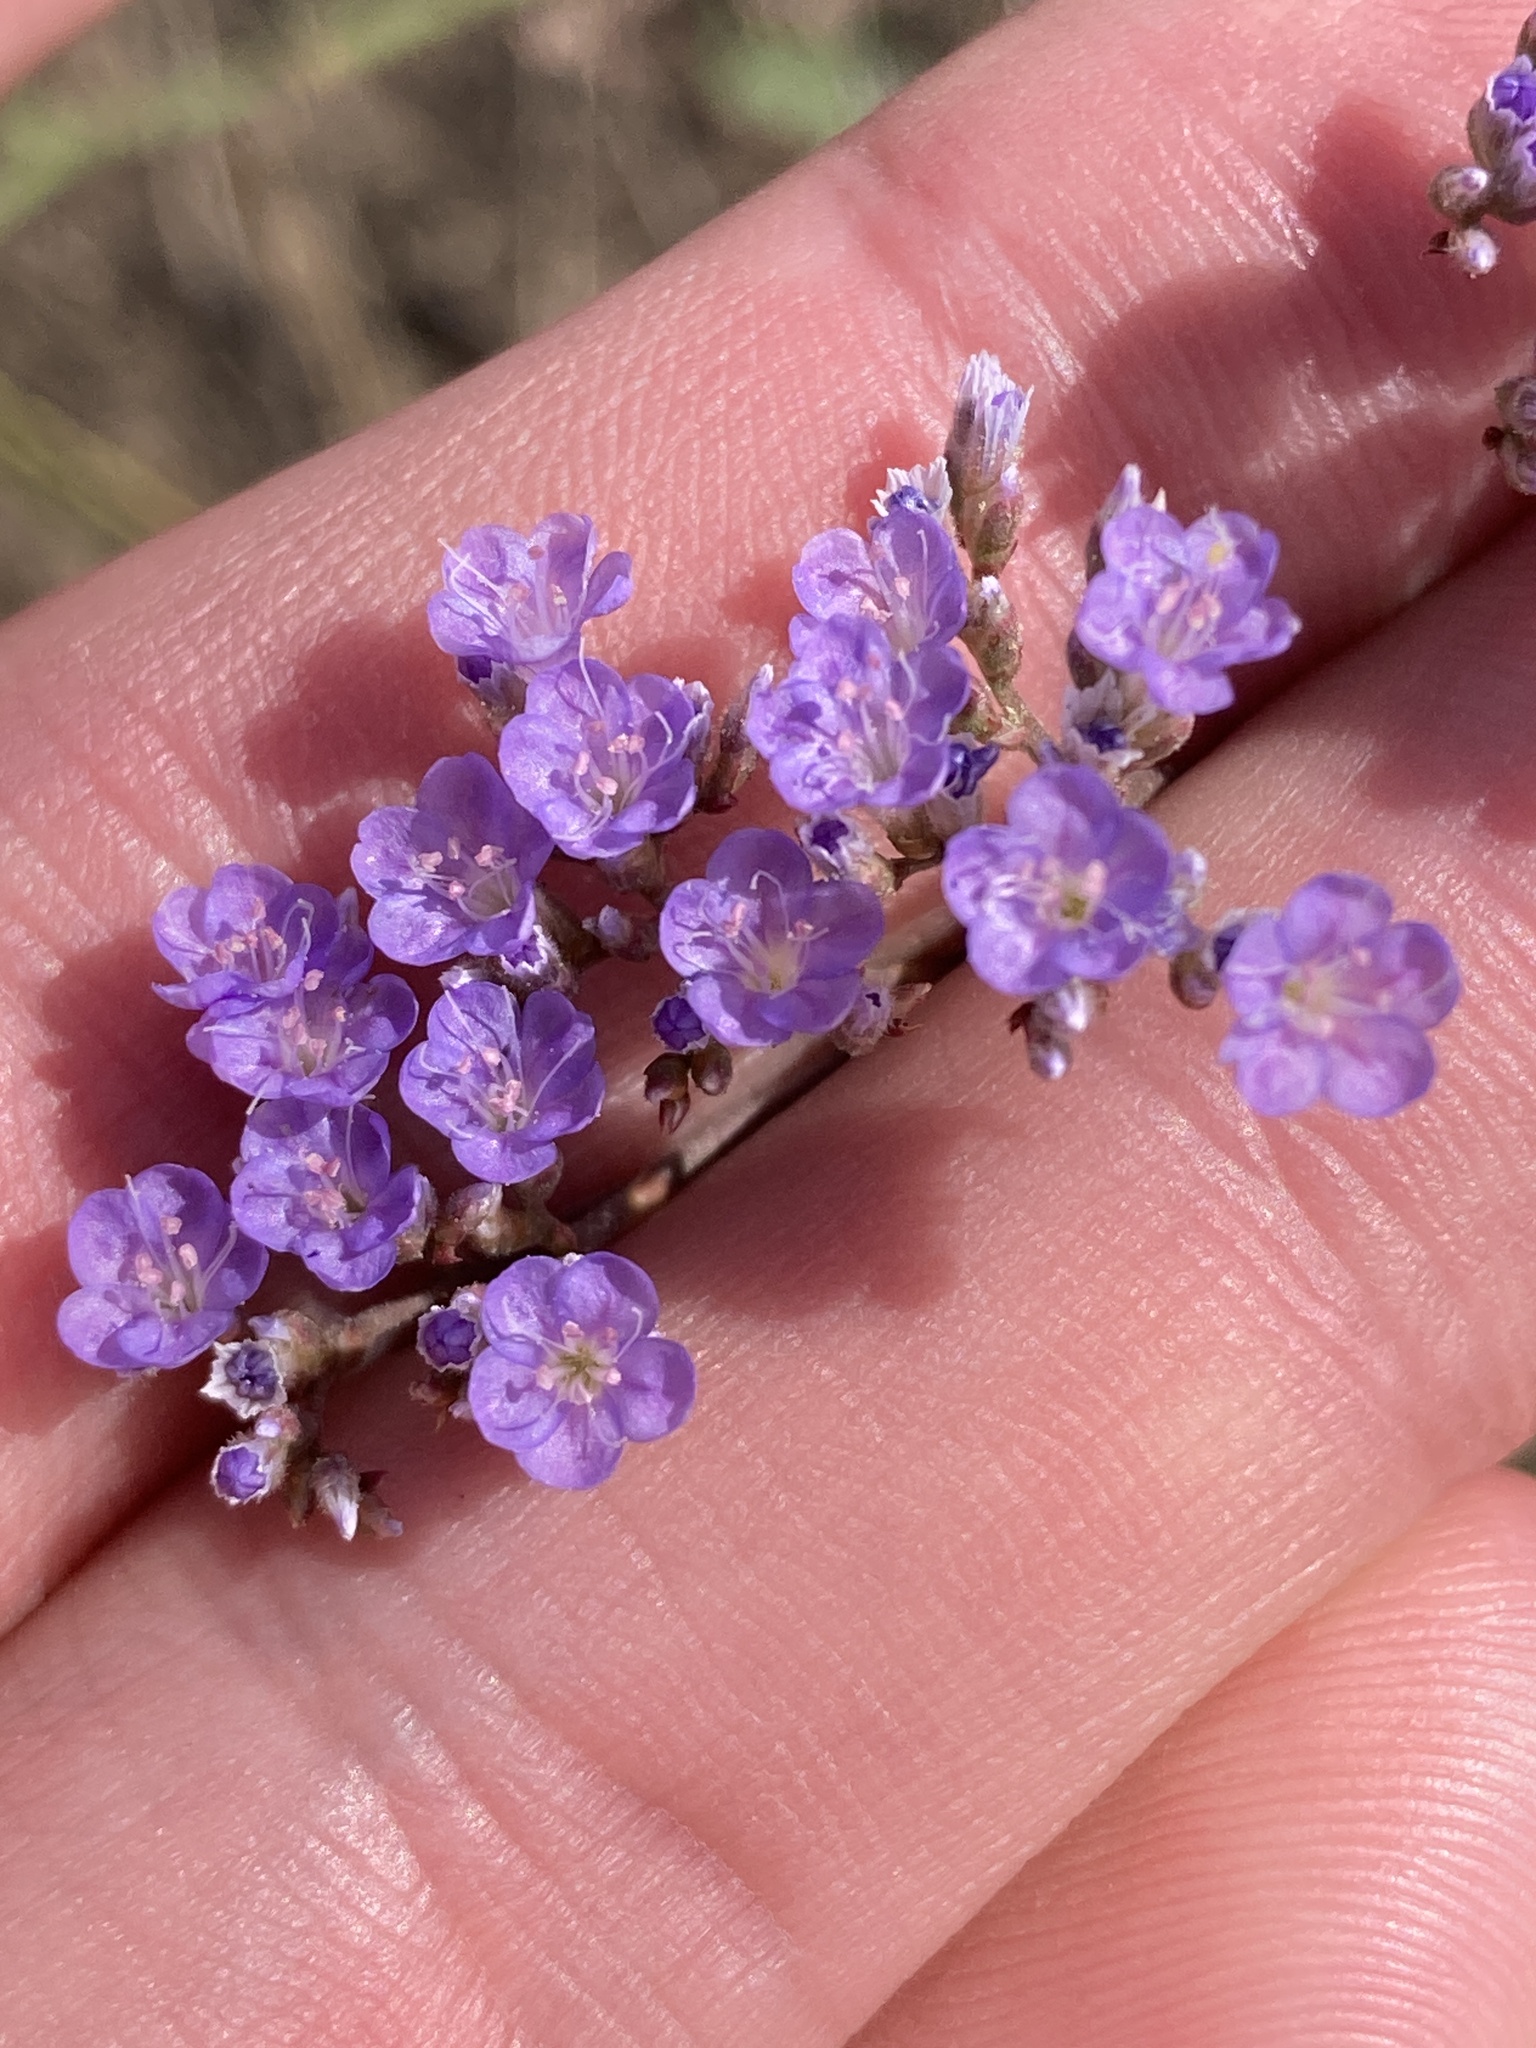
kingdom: Plantae
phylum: Tracheophyta
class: Magnoliopsida
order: Caryophyllales
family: Plumbaginaceae
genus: Limonium
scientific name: Limonium gmelini
